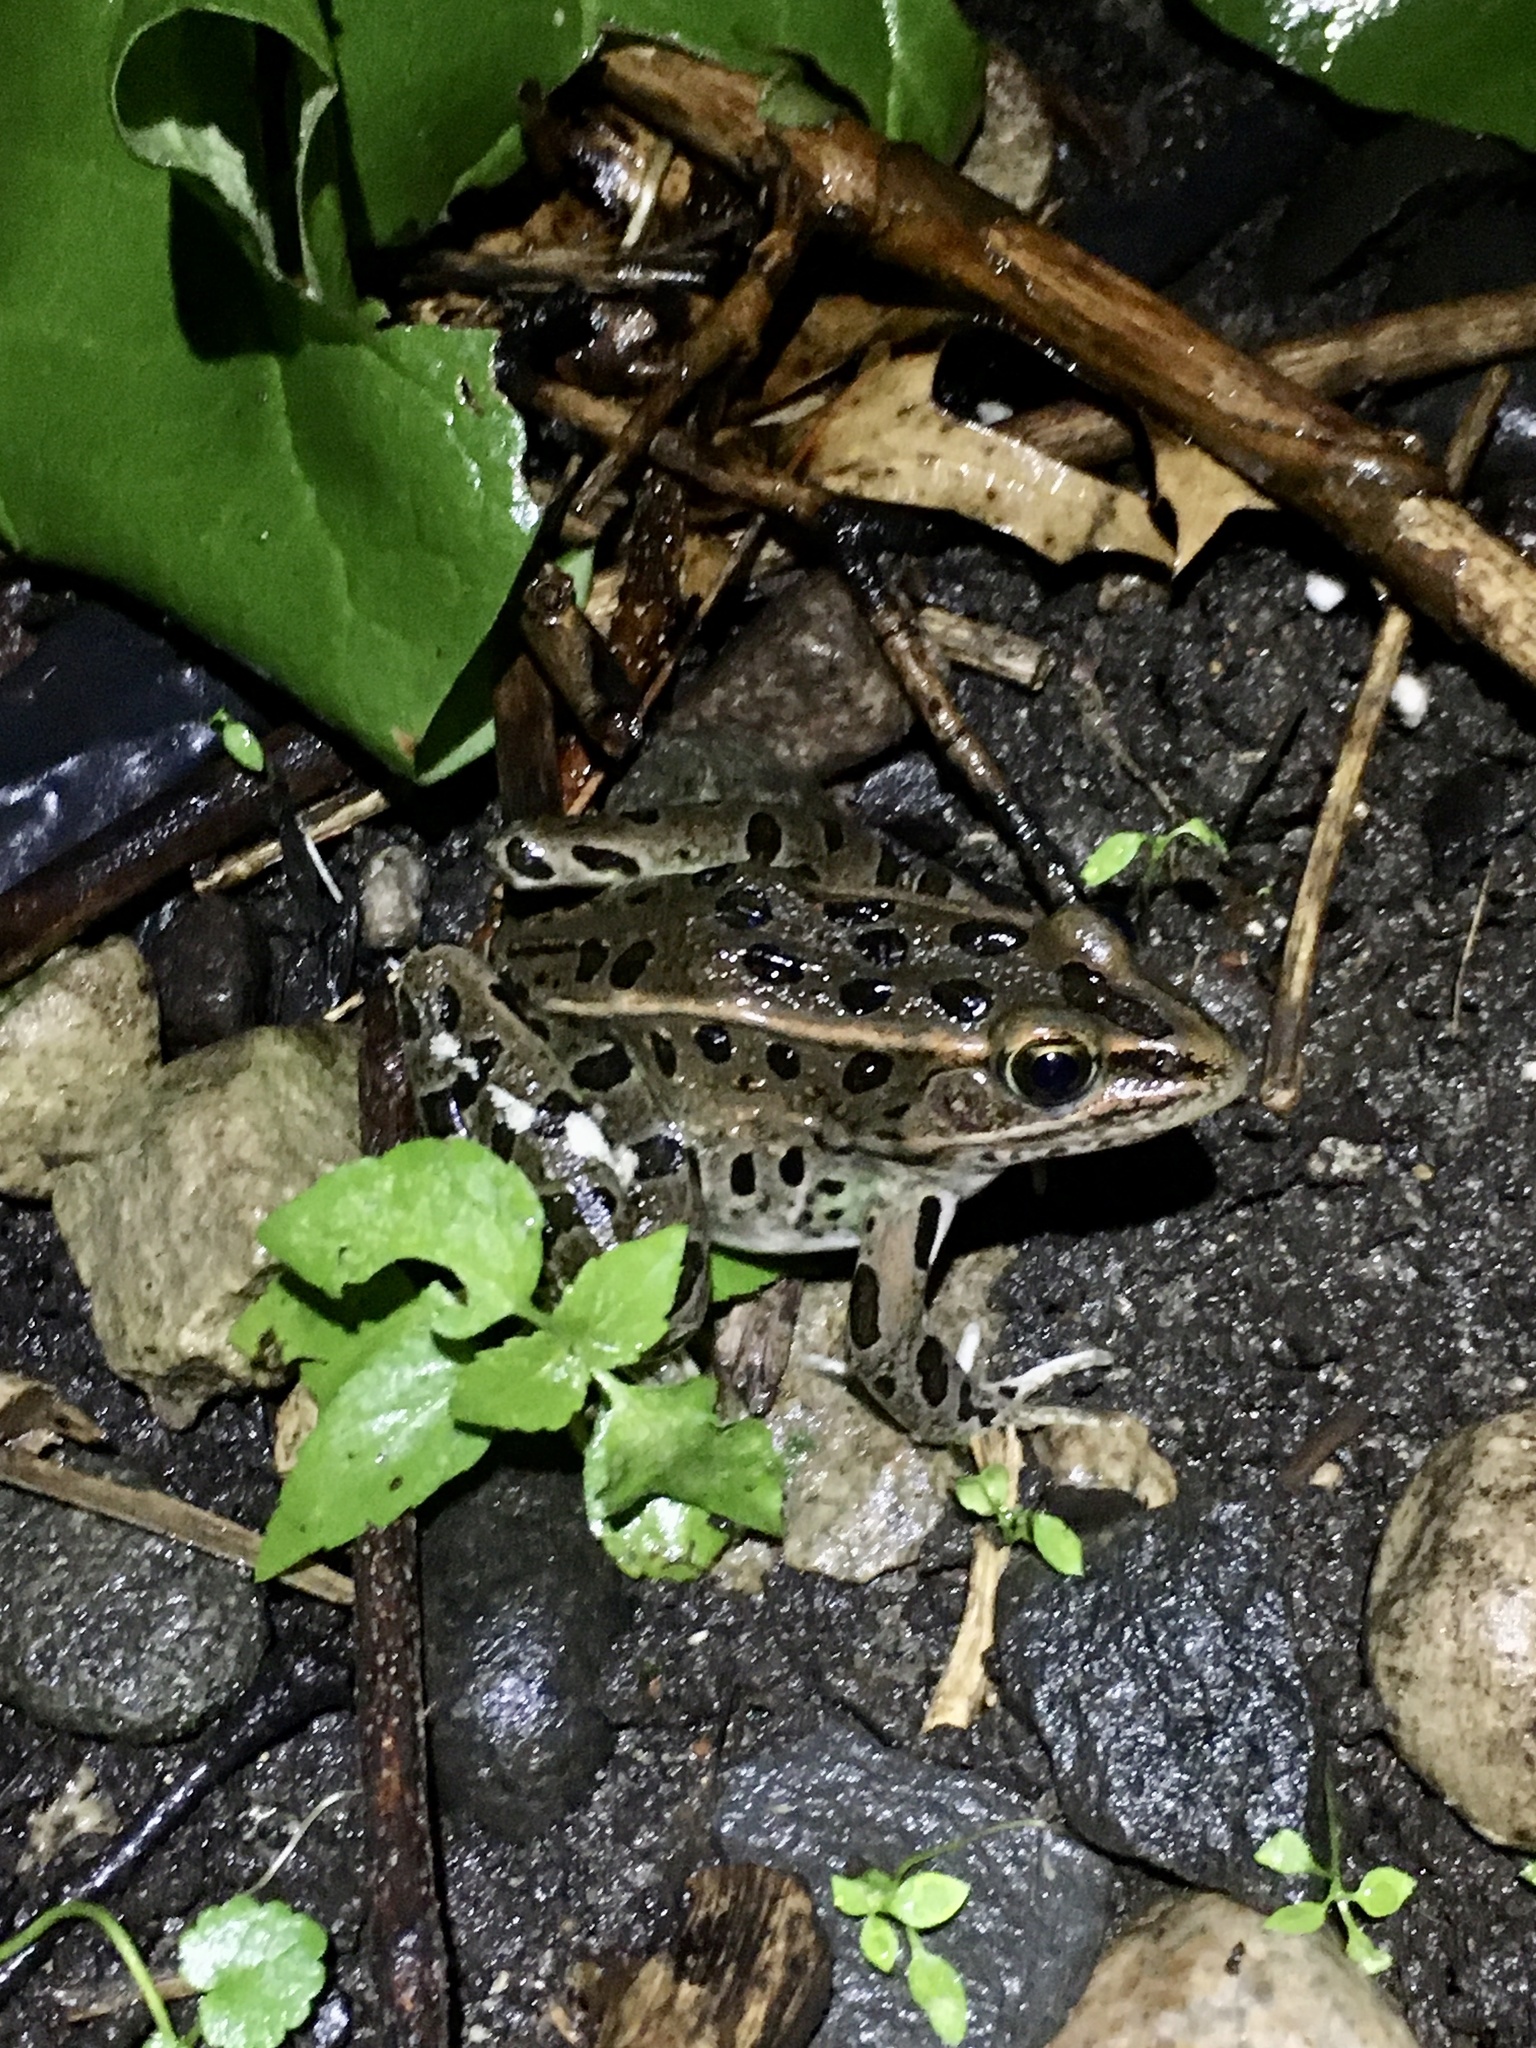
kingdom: Animalia
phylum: Chordata
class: Amphibia
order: Anura
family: Ranidae
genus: Lithobates
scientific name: Lithobates pipiens
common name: Northern leopard frog
